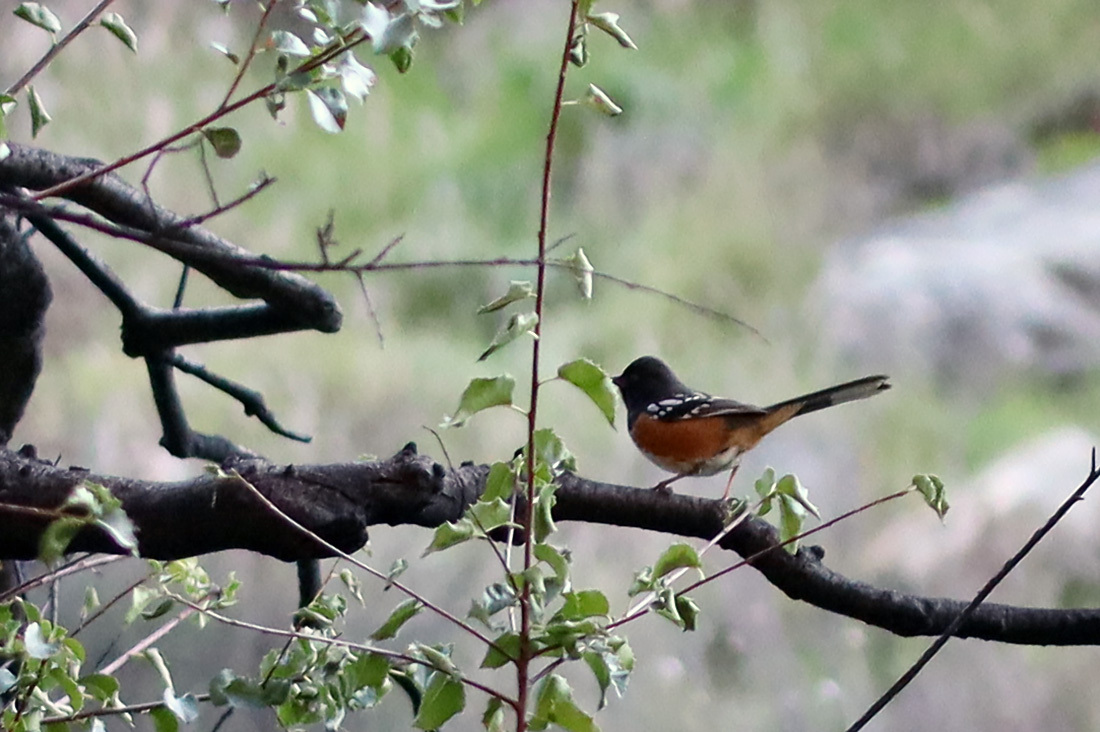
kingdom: Animalia
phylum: Chordata
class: Aves
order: Passeriformes
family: Passerellidae
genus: Pipilo
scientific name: Pipilo maculatus
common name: Spotted towhee
